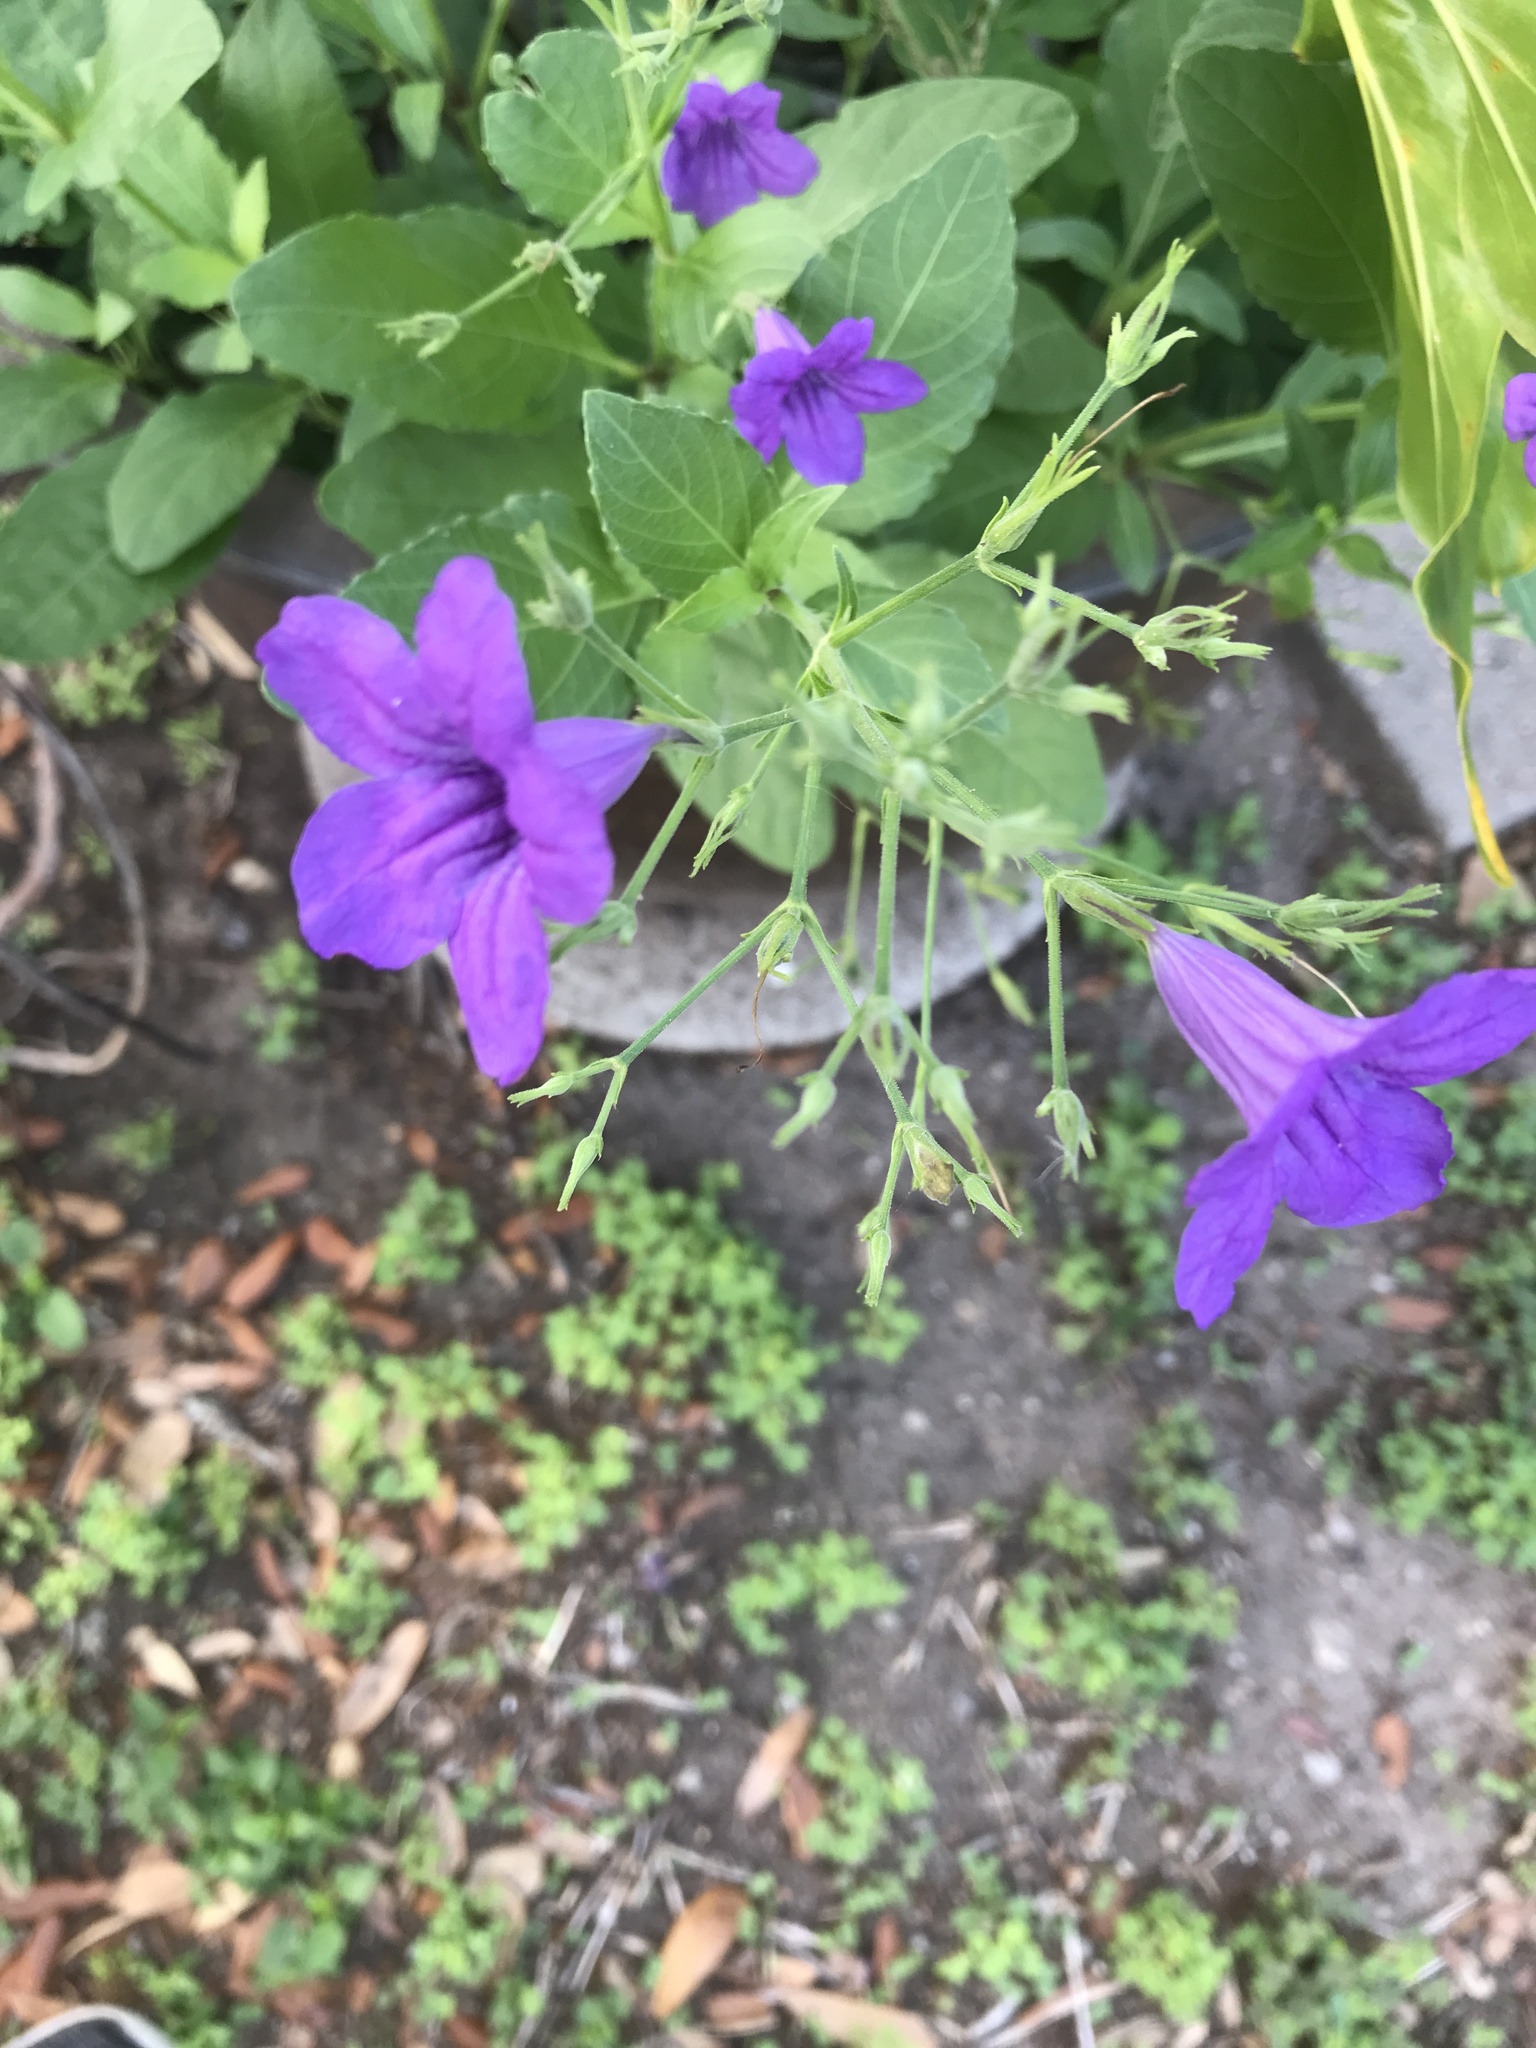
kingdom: Plantae
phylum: Tracheophyta
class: Magnoliopsida
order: Lamiales
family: Acanthaceae
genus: Ruellia
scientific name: Ruellia ciliatiflora
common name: Hairyflower wild petunia
